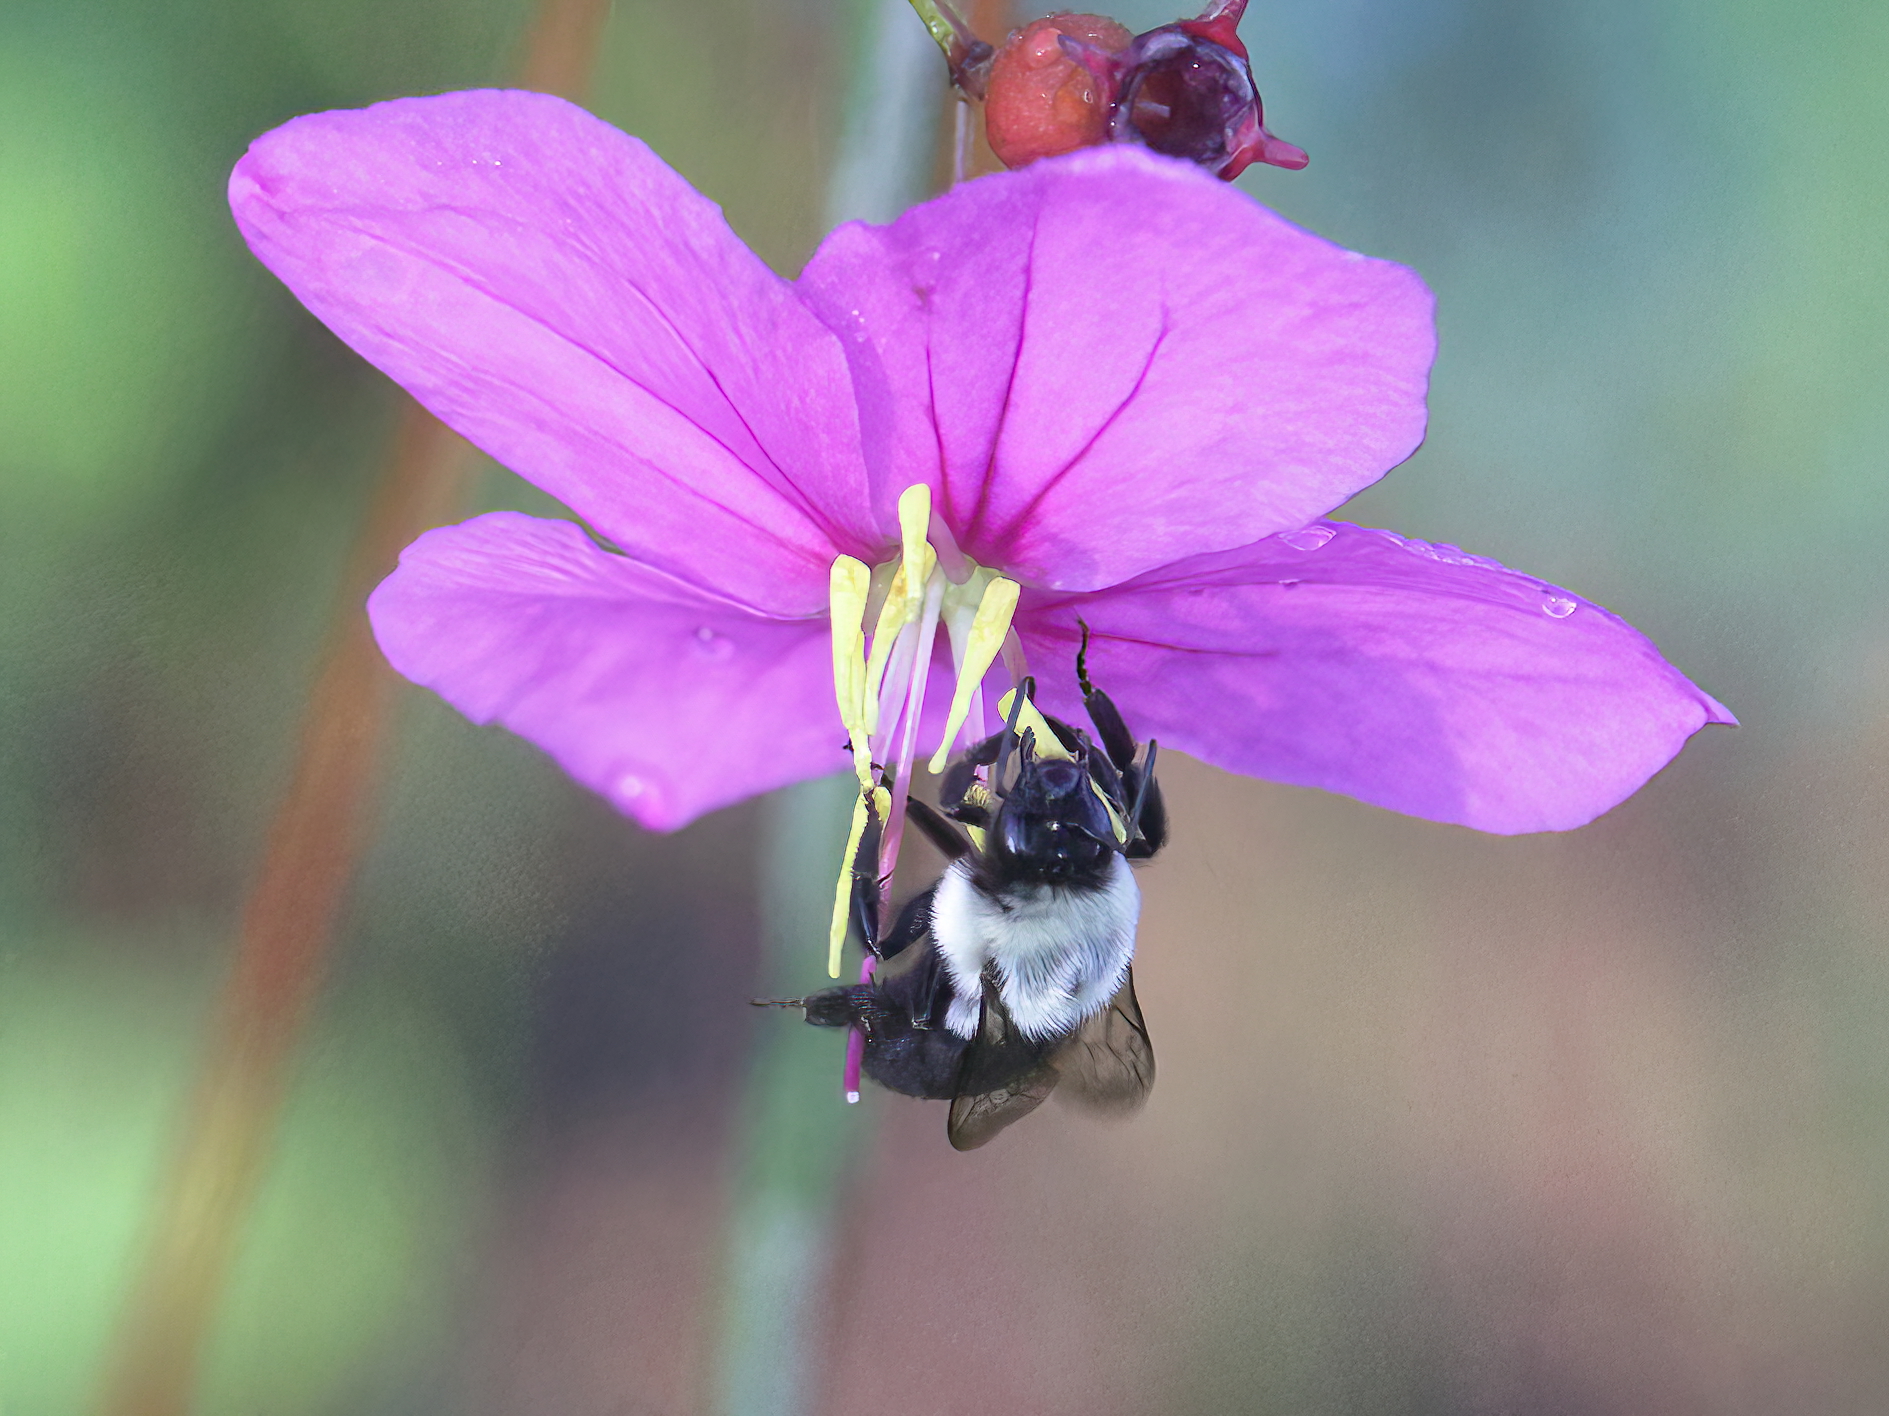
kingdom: Animalia
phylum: Arthropoda
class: Insecta
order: Hymenoptera
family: Apidae
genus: Bombus
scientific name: Bombus impatiens
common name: Common eastern bumble bee
